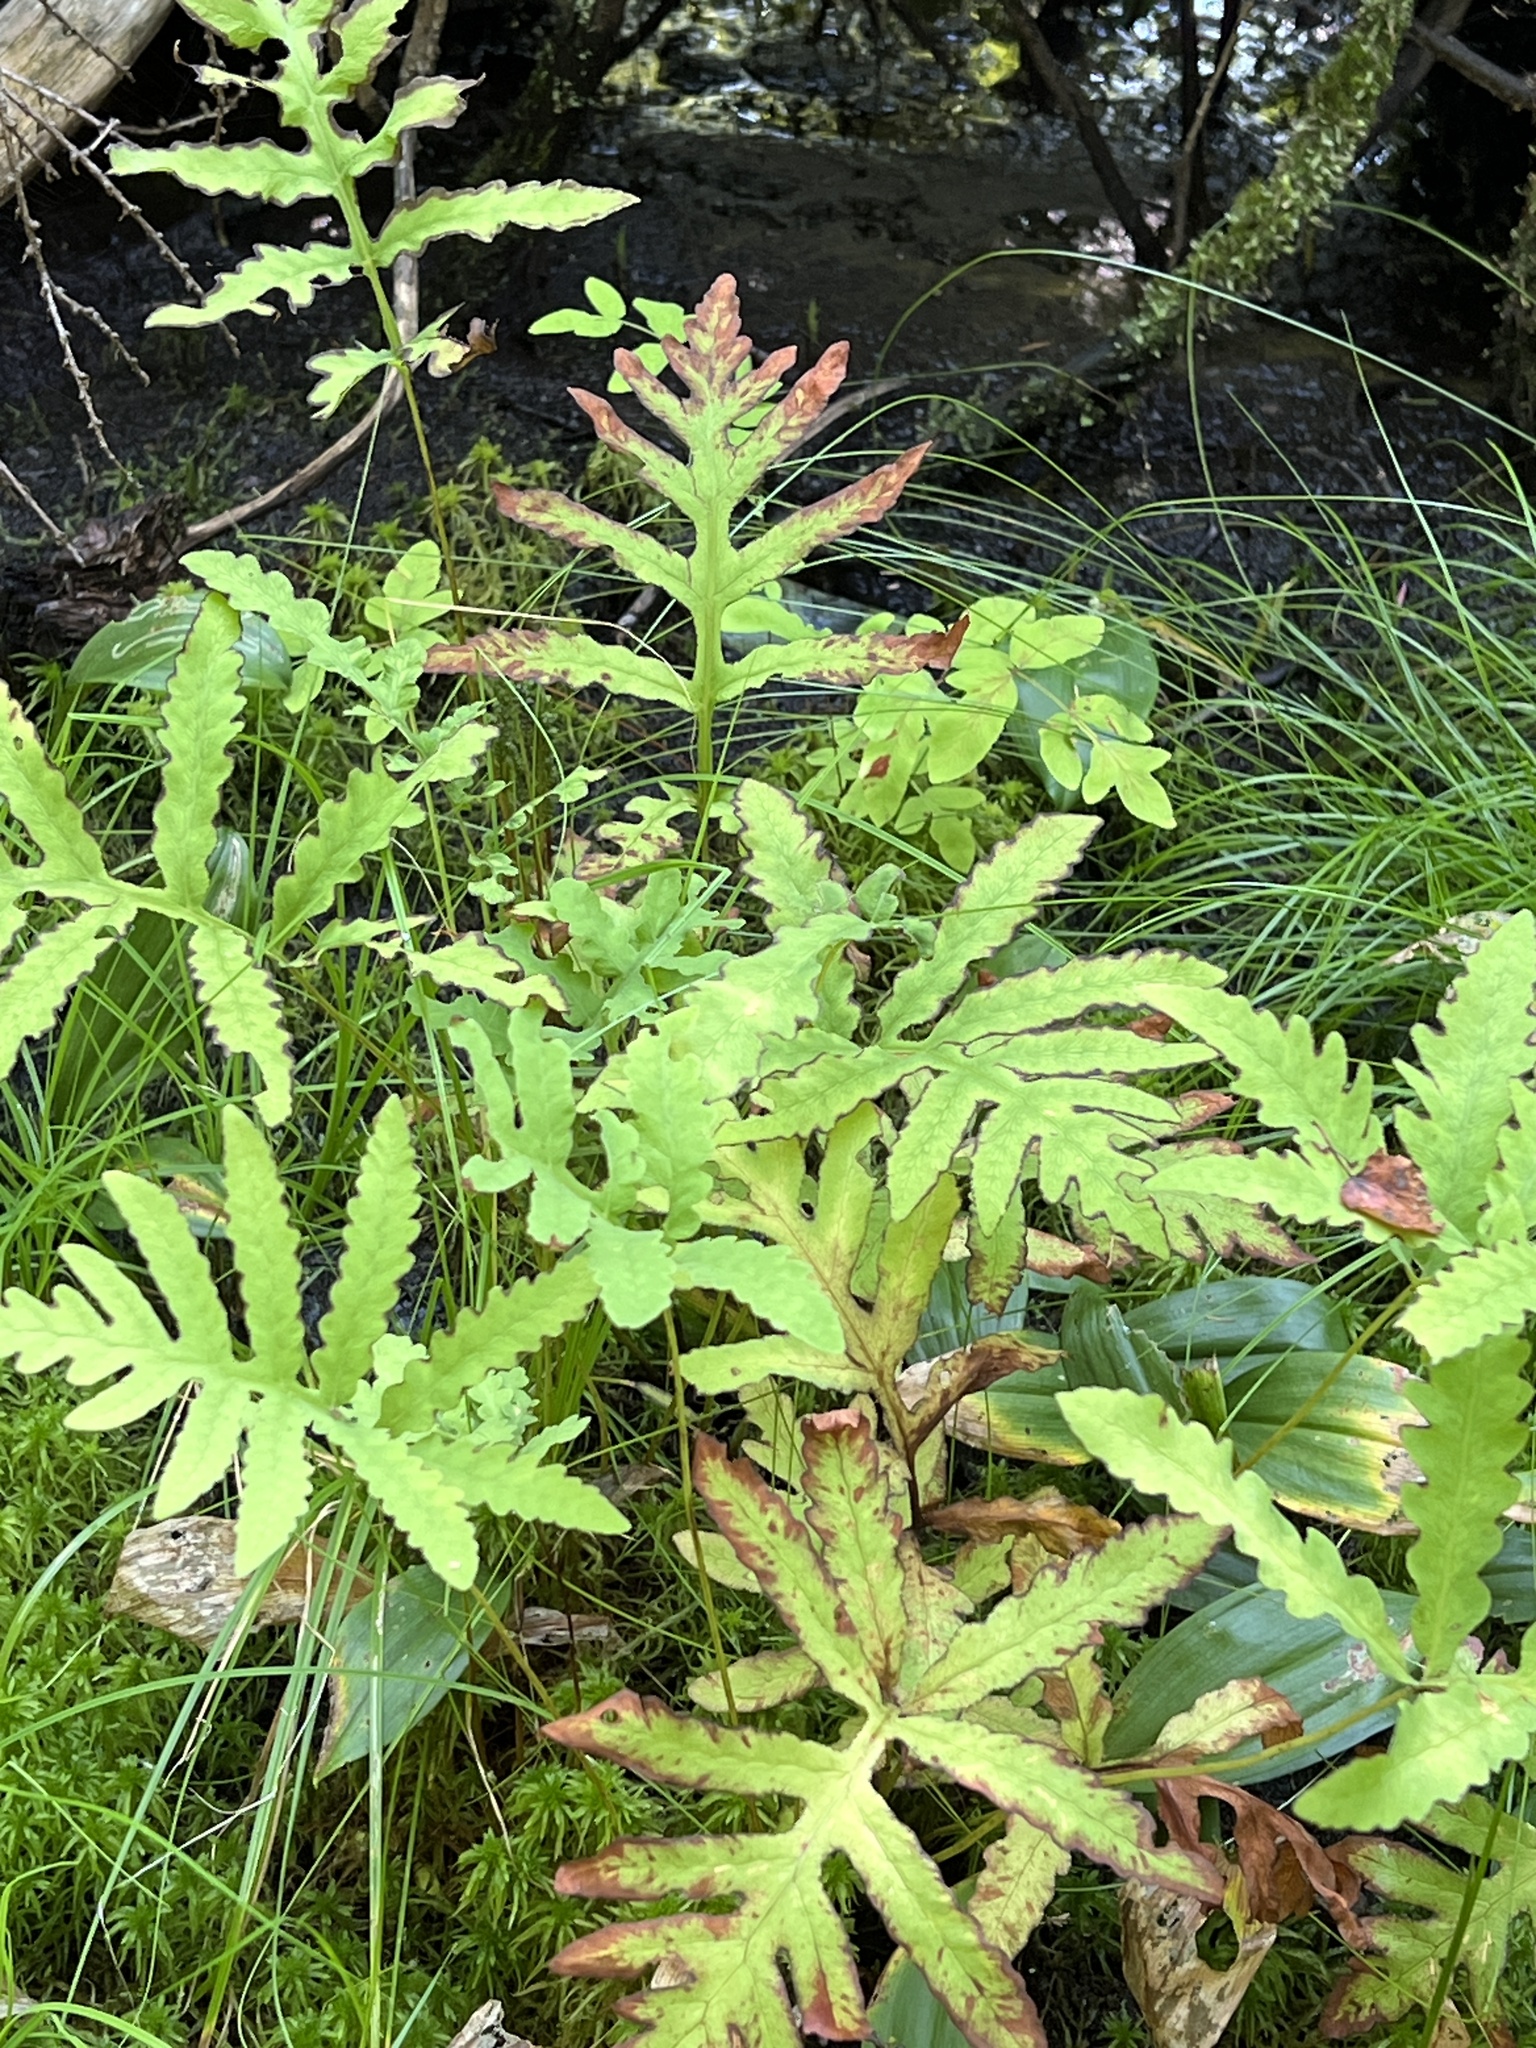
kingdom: Plantae
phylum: Tracheophyta
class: Polypodiopsida
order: Polypodiales
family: Onocleaceae
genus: Onoclea
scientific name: Onoclea sensibilis
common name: Sensitive fern
